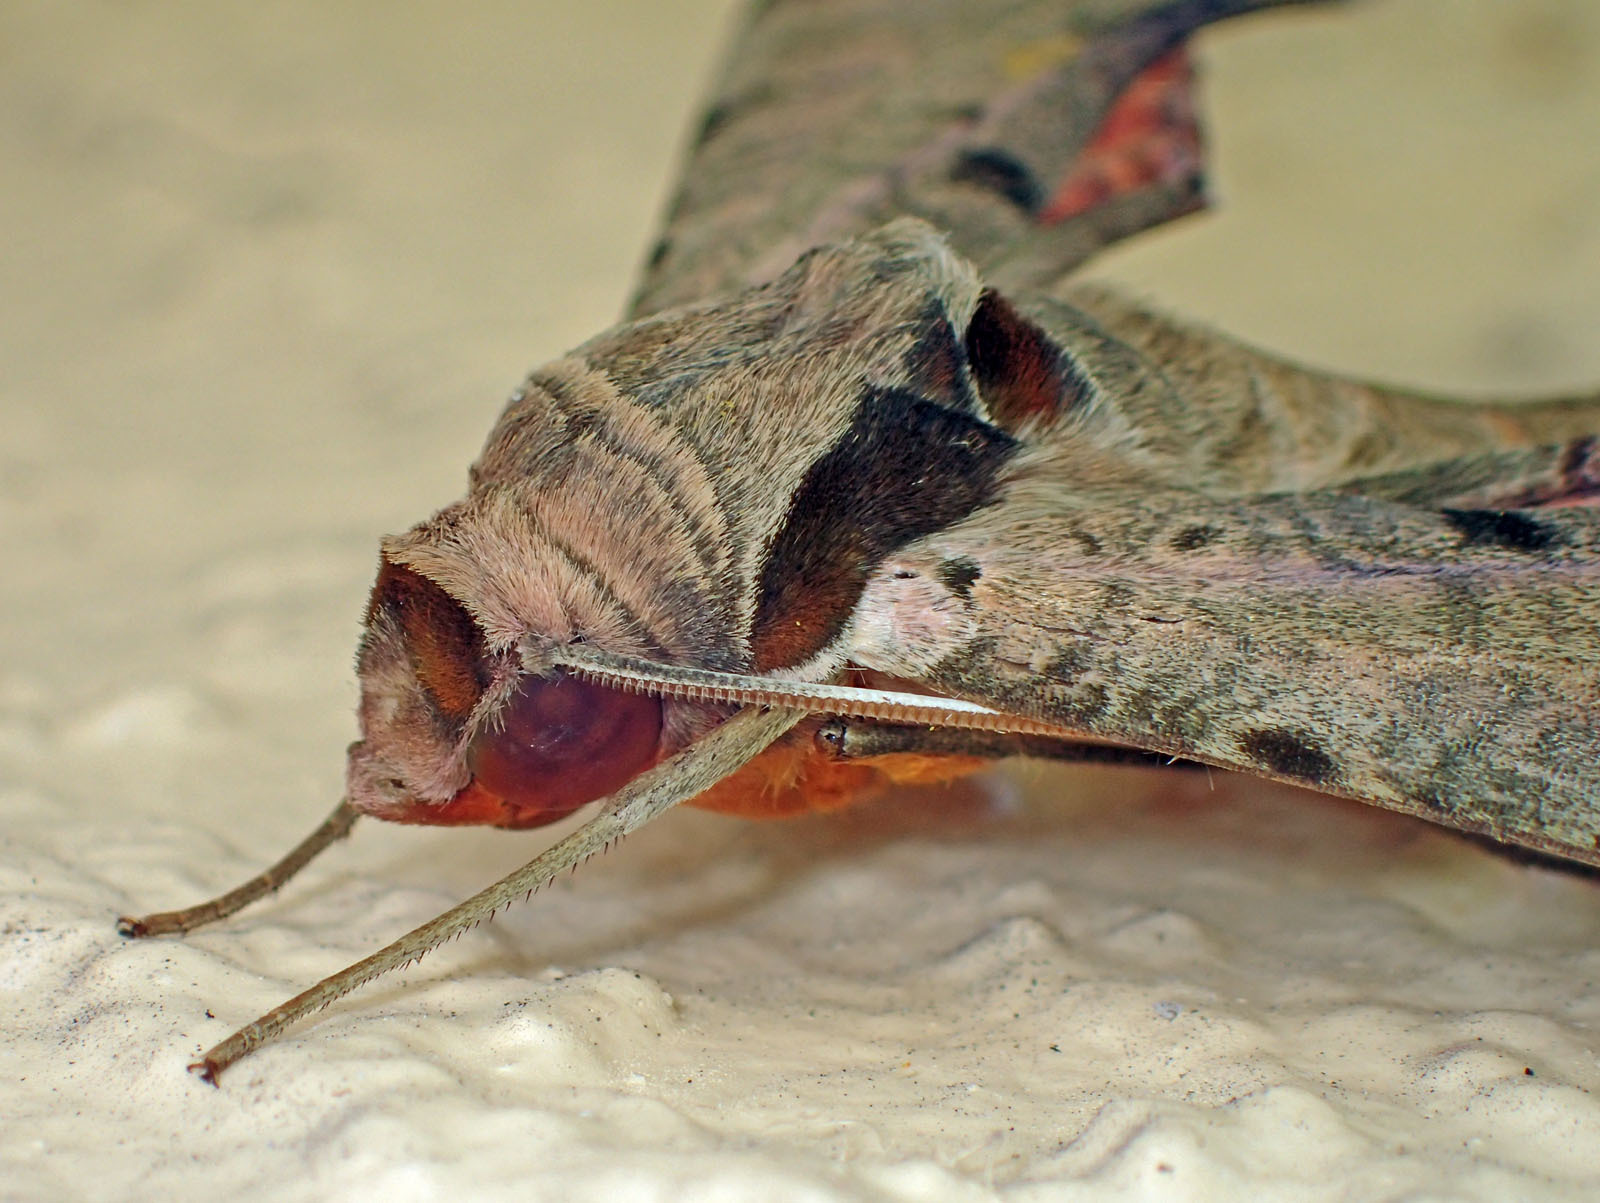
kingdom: Animalia
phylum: Arthropoda
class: Insecta
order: Lepidoptera
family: Sphingidae
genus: Protambulyx
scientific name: Protambulyx strigilis
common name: Streaked sphinx
